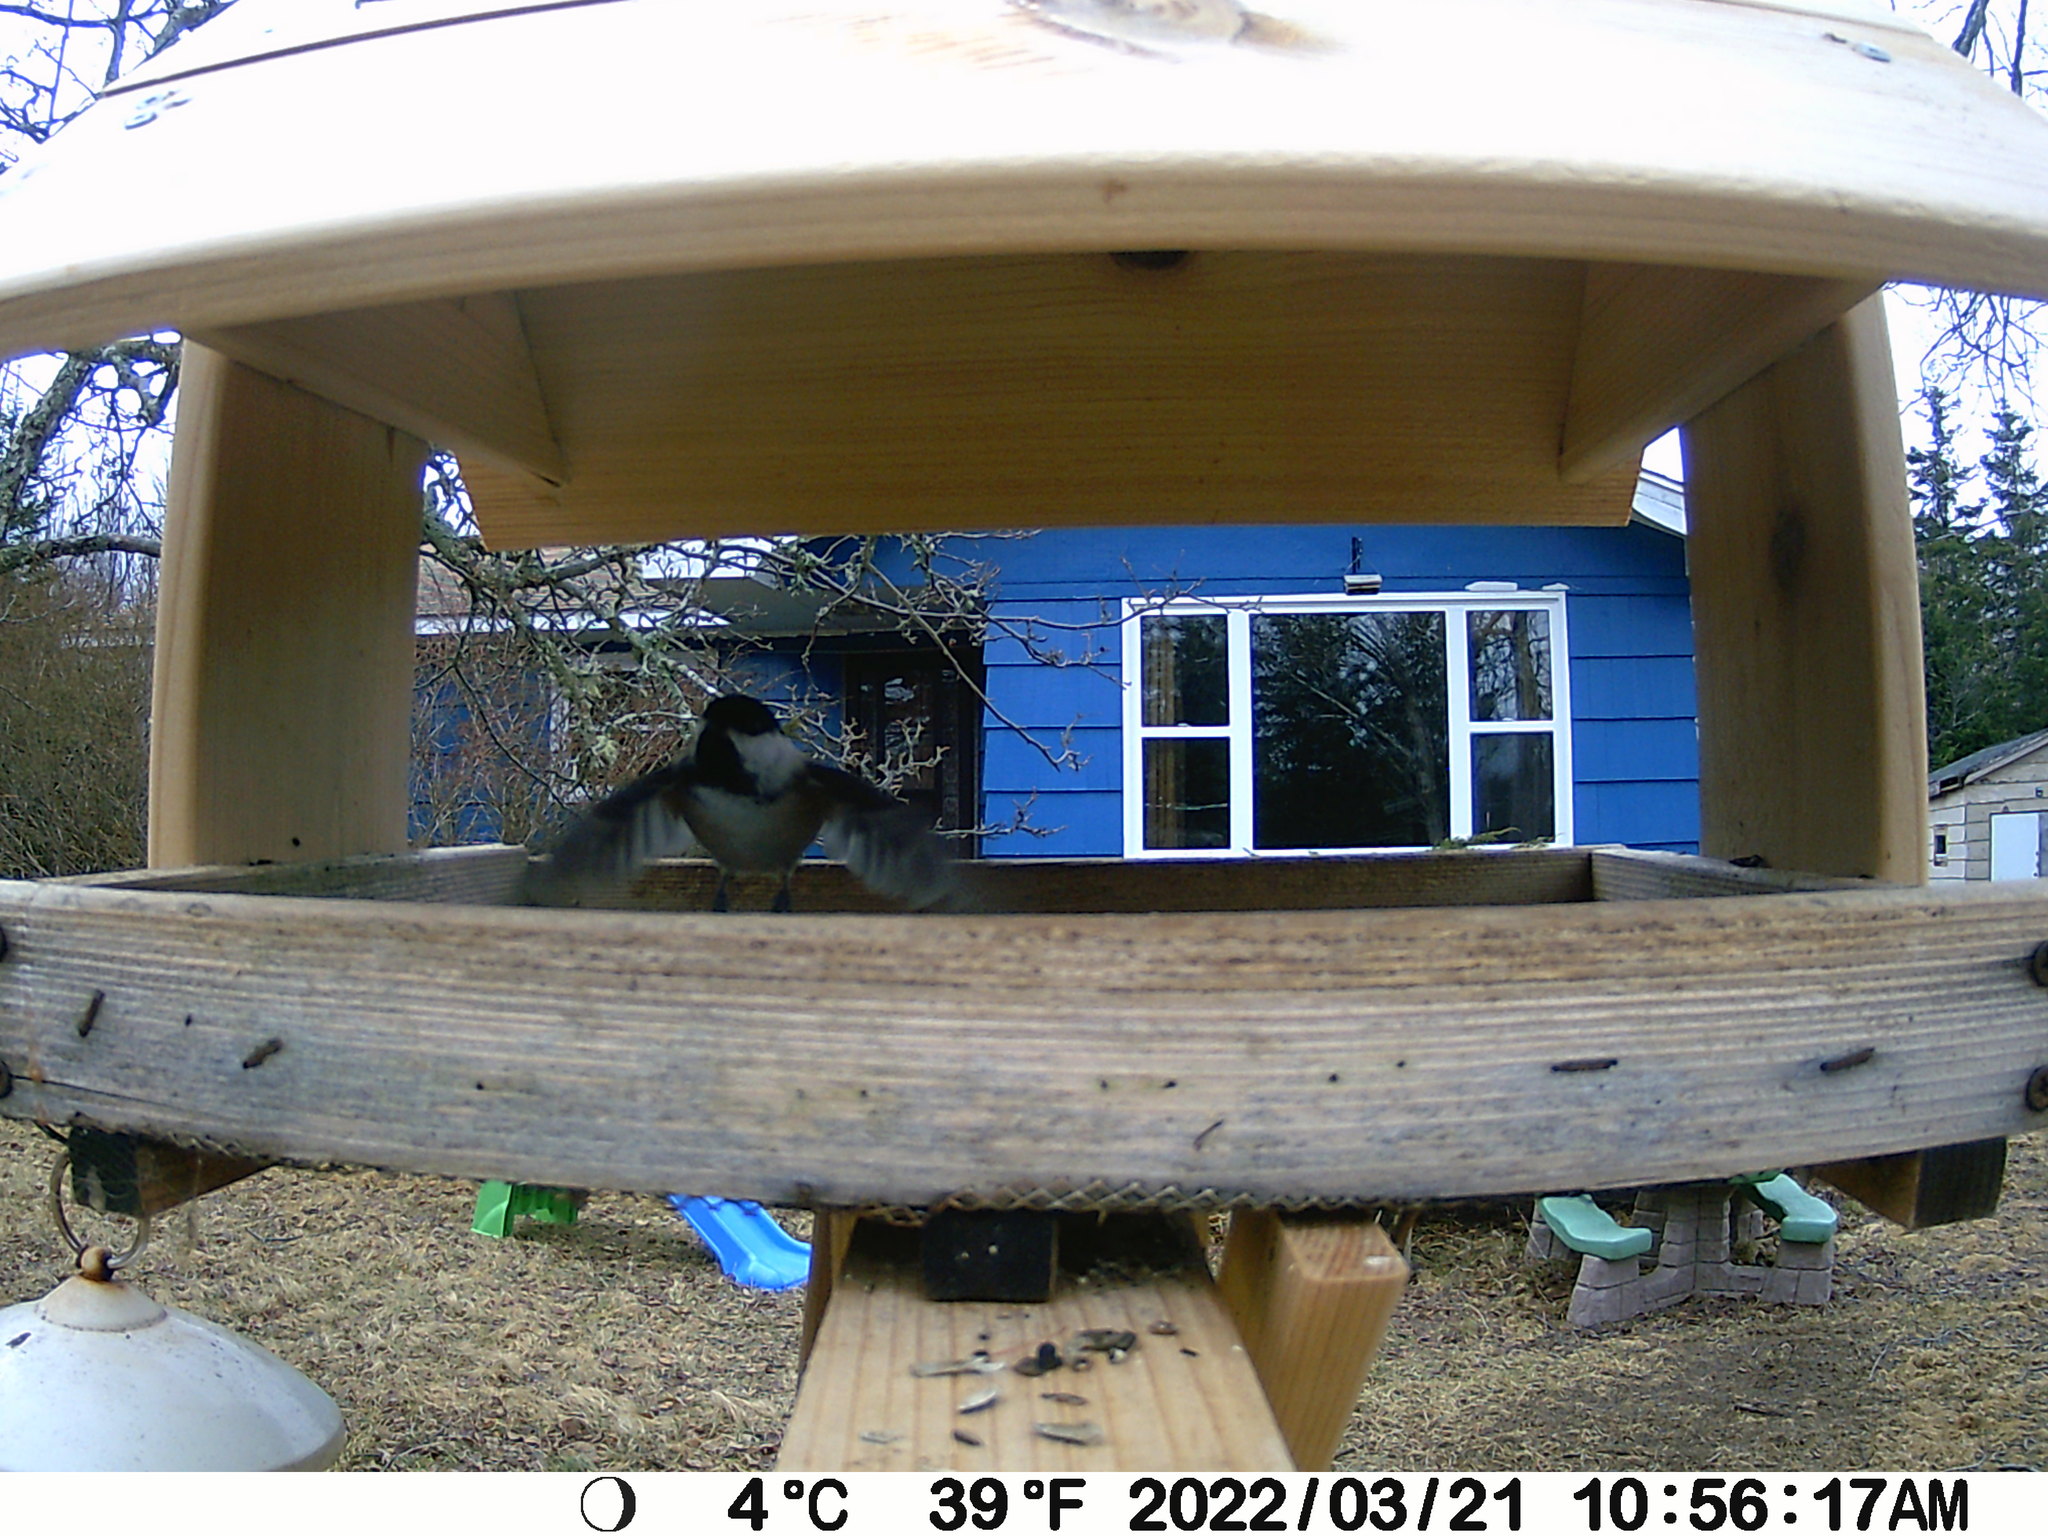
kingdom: Animalia
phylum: Chordata
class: Aves
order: Passeriformes
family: Paridae
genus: Poecile
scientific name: Poecile atricapillus
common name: Black-capped chickadee
